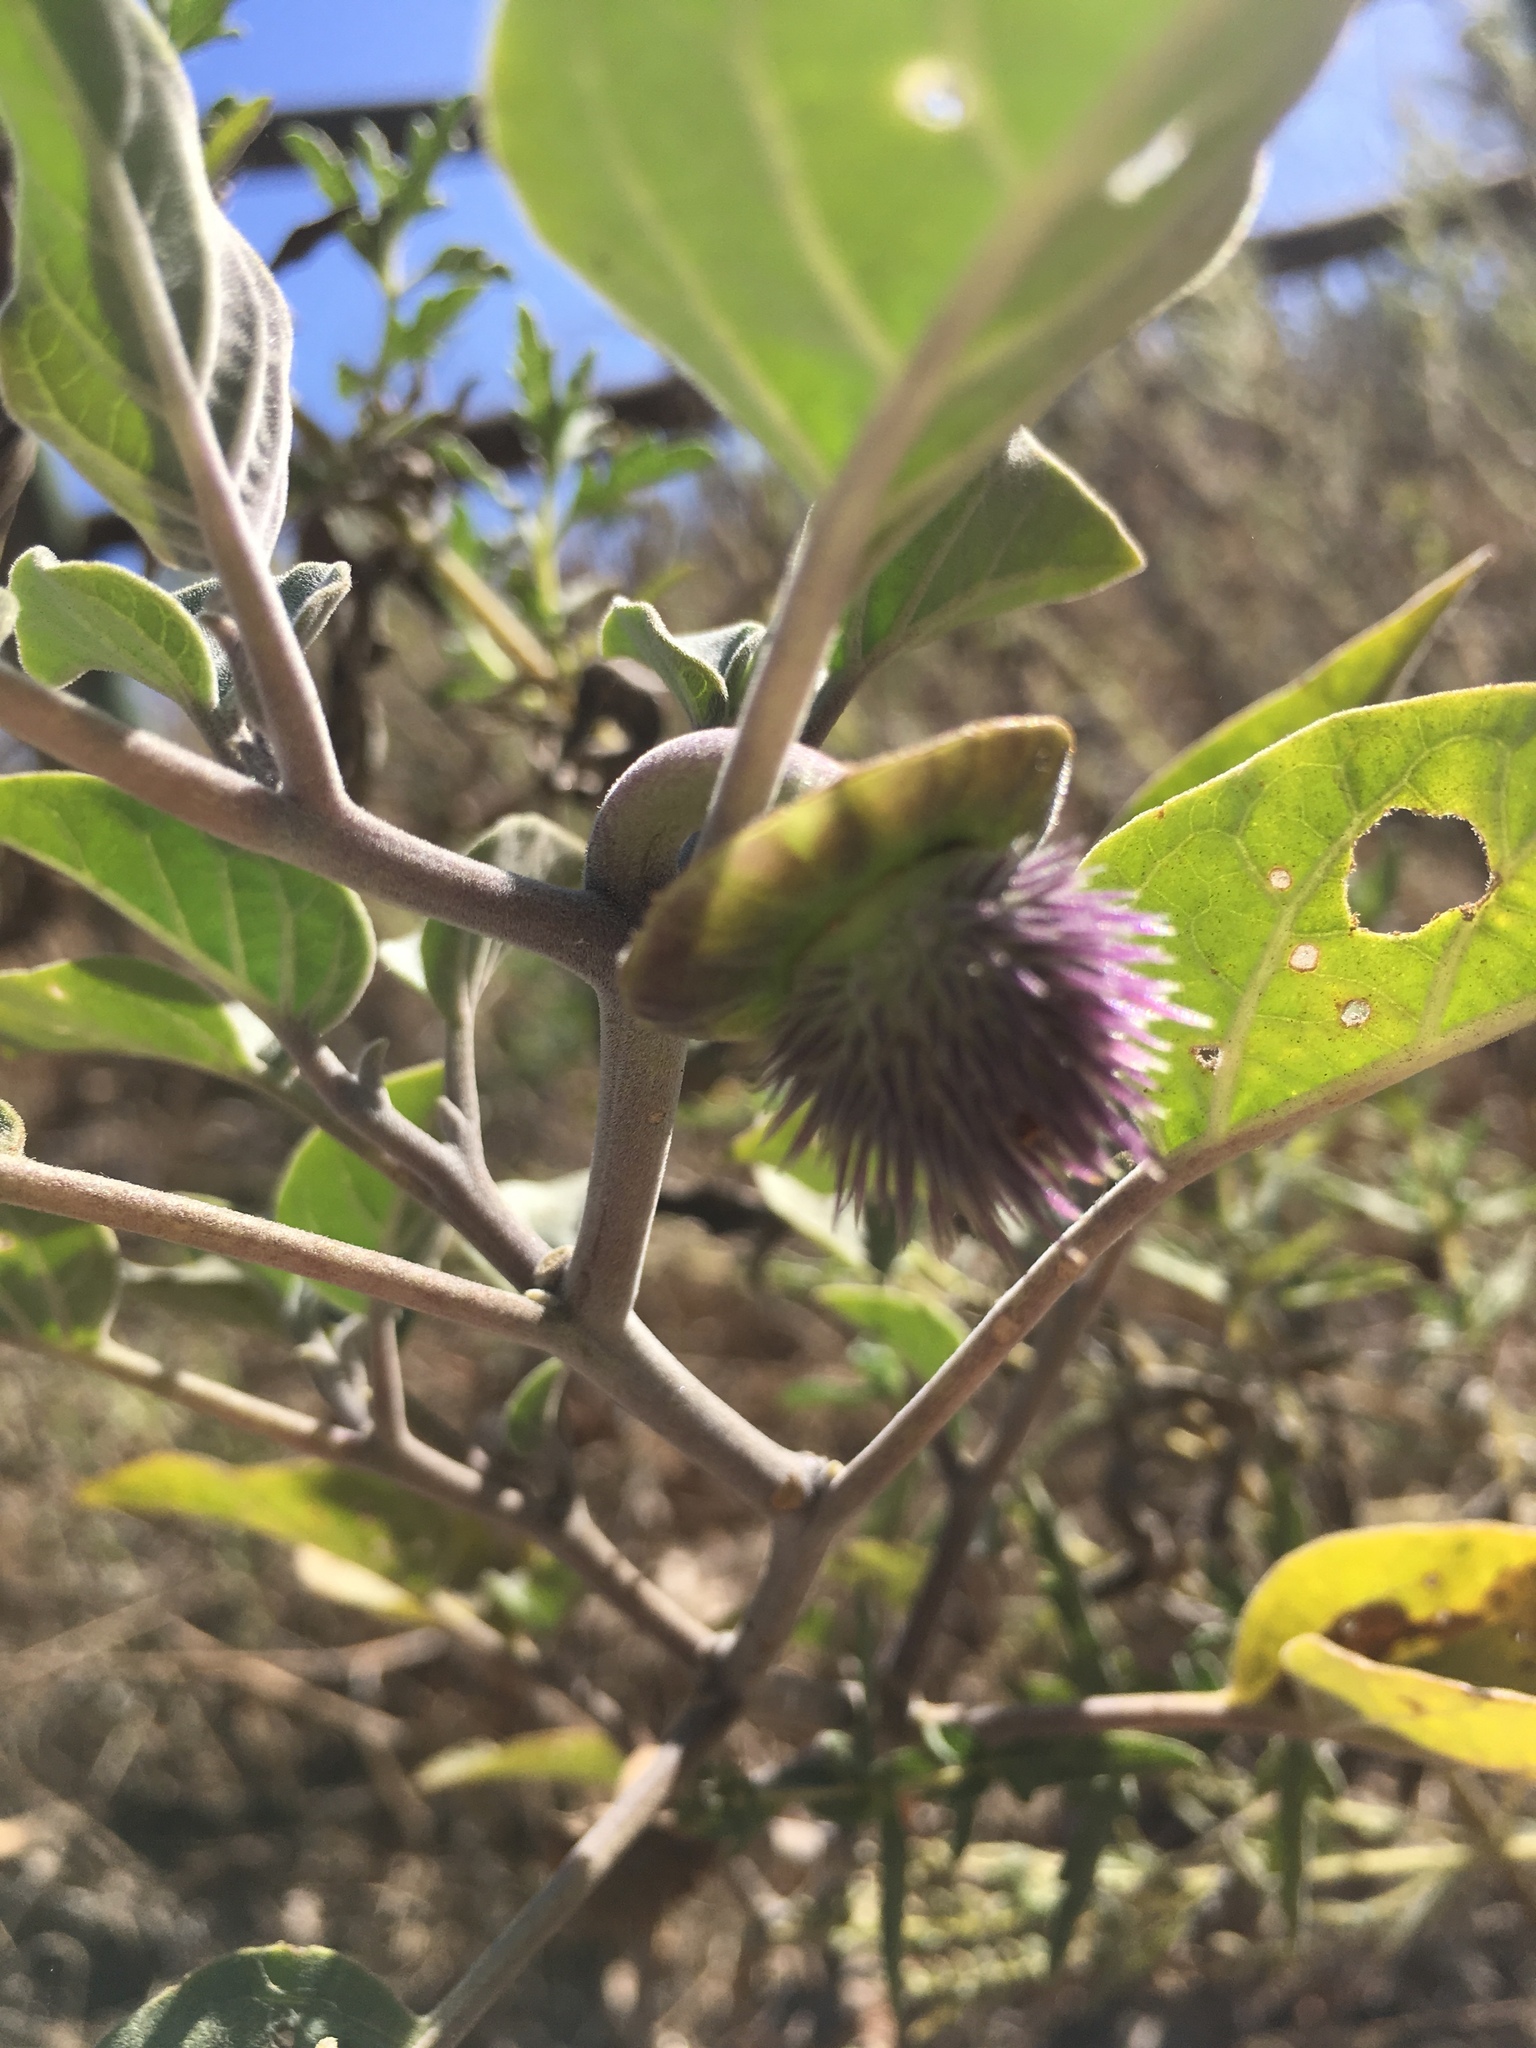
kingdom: Plantae
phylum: Tracheophyta
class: Magnoliopsida
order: Solanales
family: Solanaceae
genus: Datura
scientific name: Datura wrightii
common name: Sacred thorn-apple
